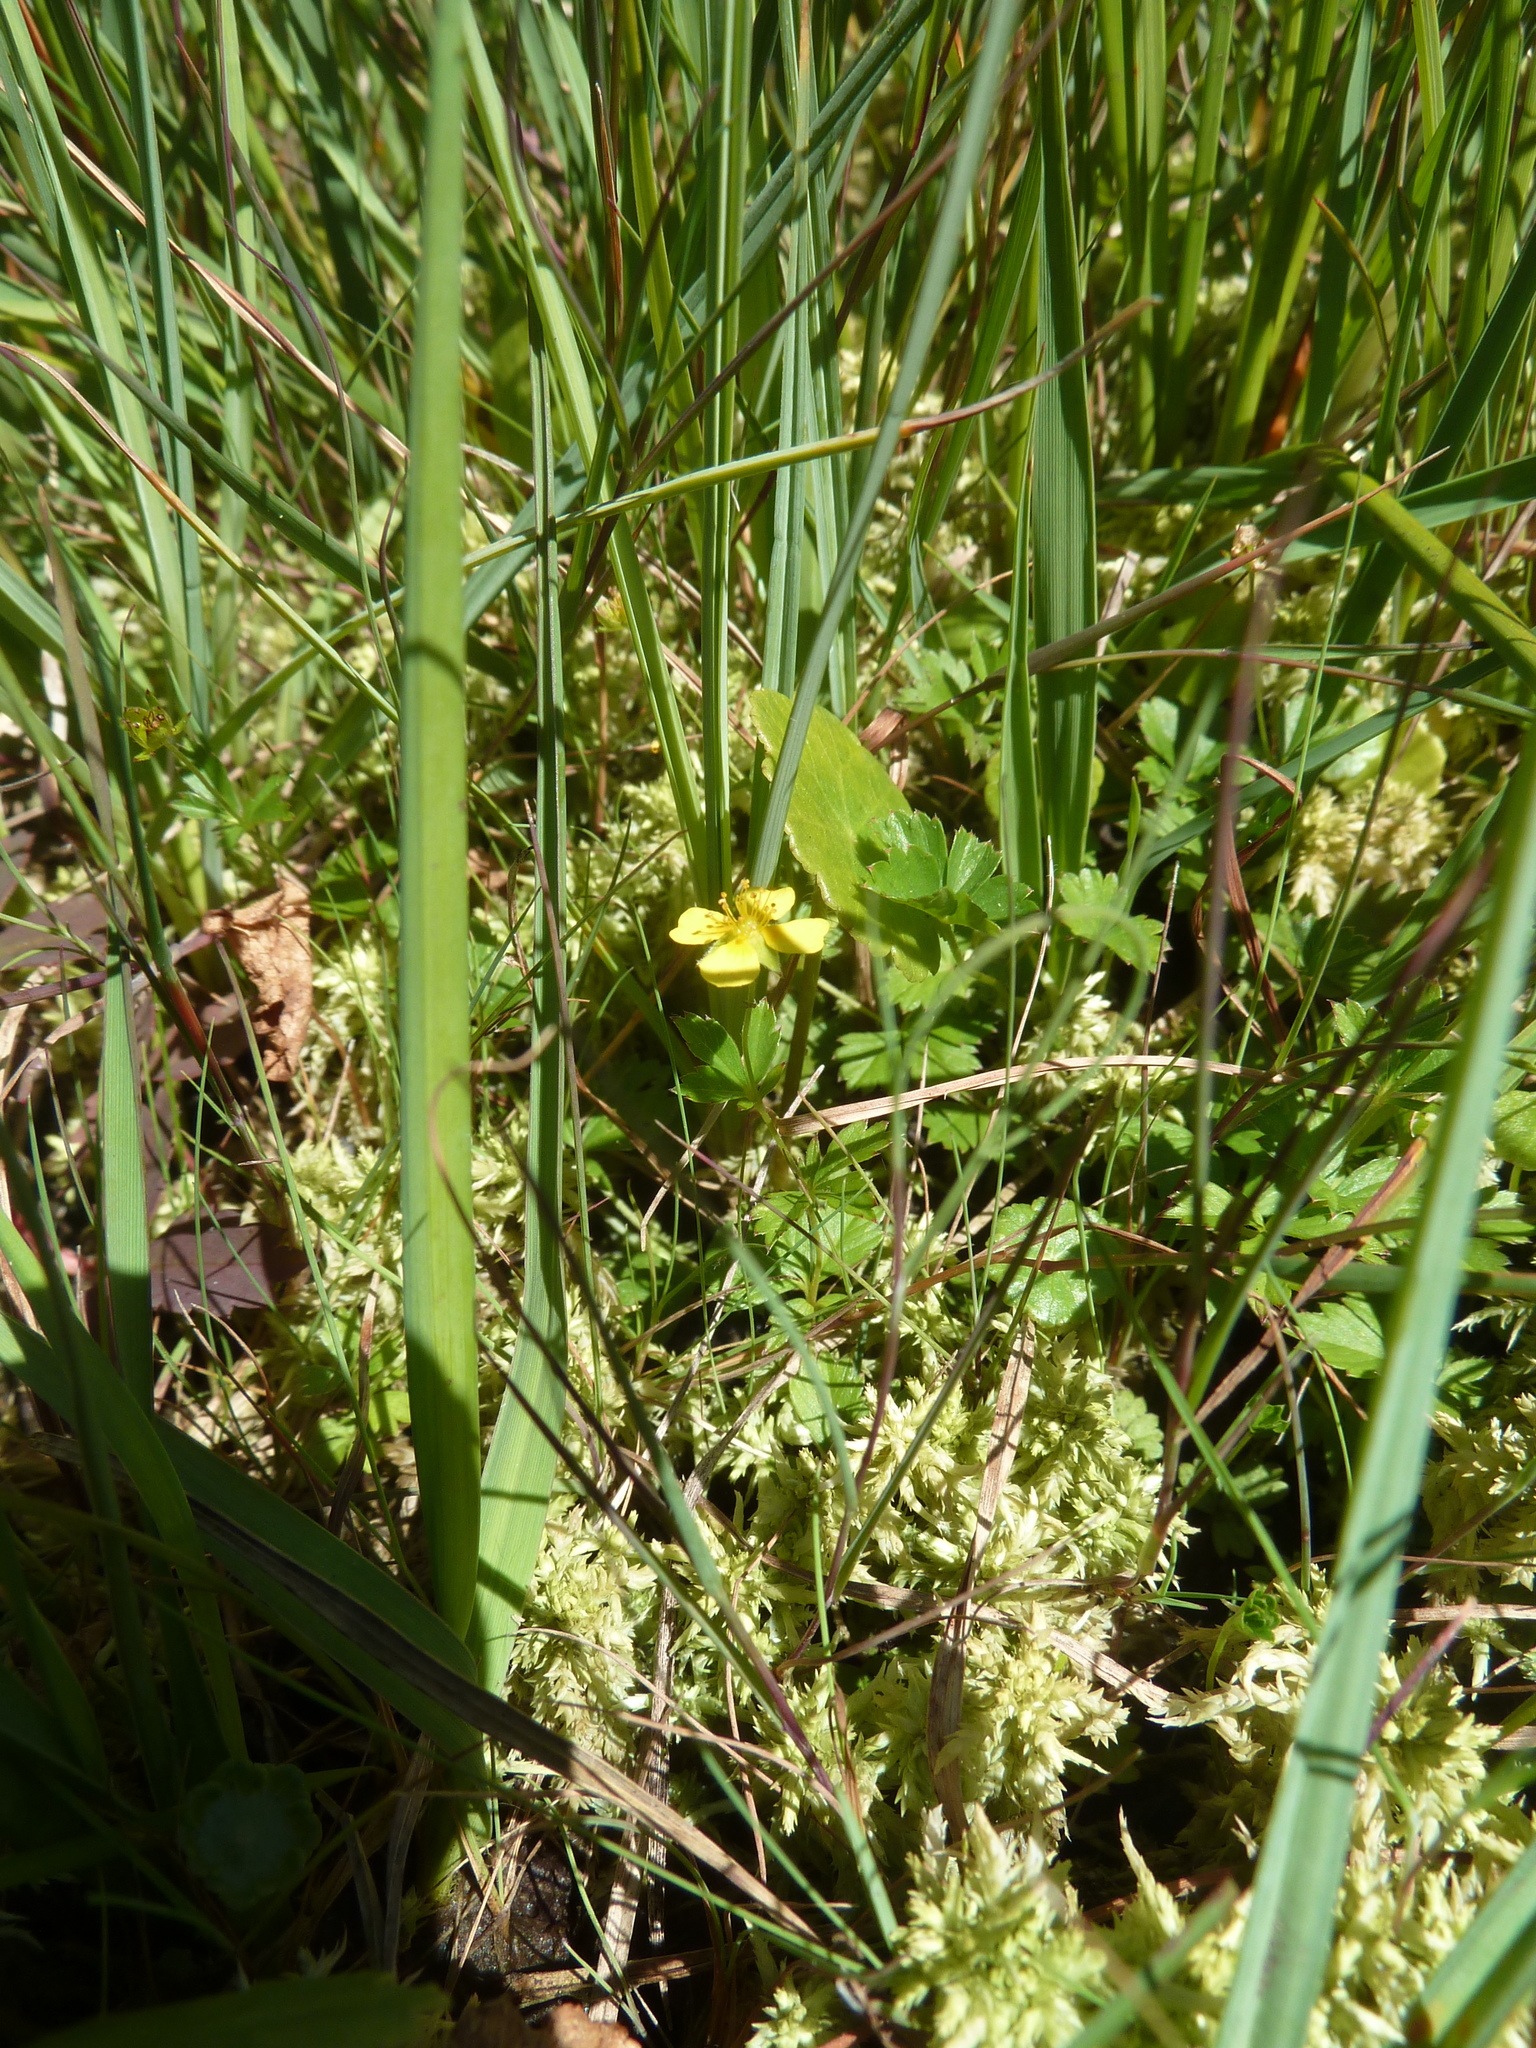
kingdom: Plantae
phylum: Tracheophyta
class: Magnoliopsida
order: Rosales
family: Rosaceae
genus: Potentilla
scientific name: Potentilla erecta
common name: Tormentil
